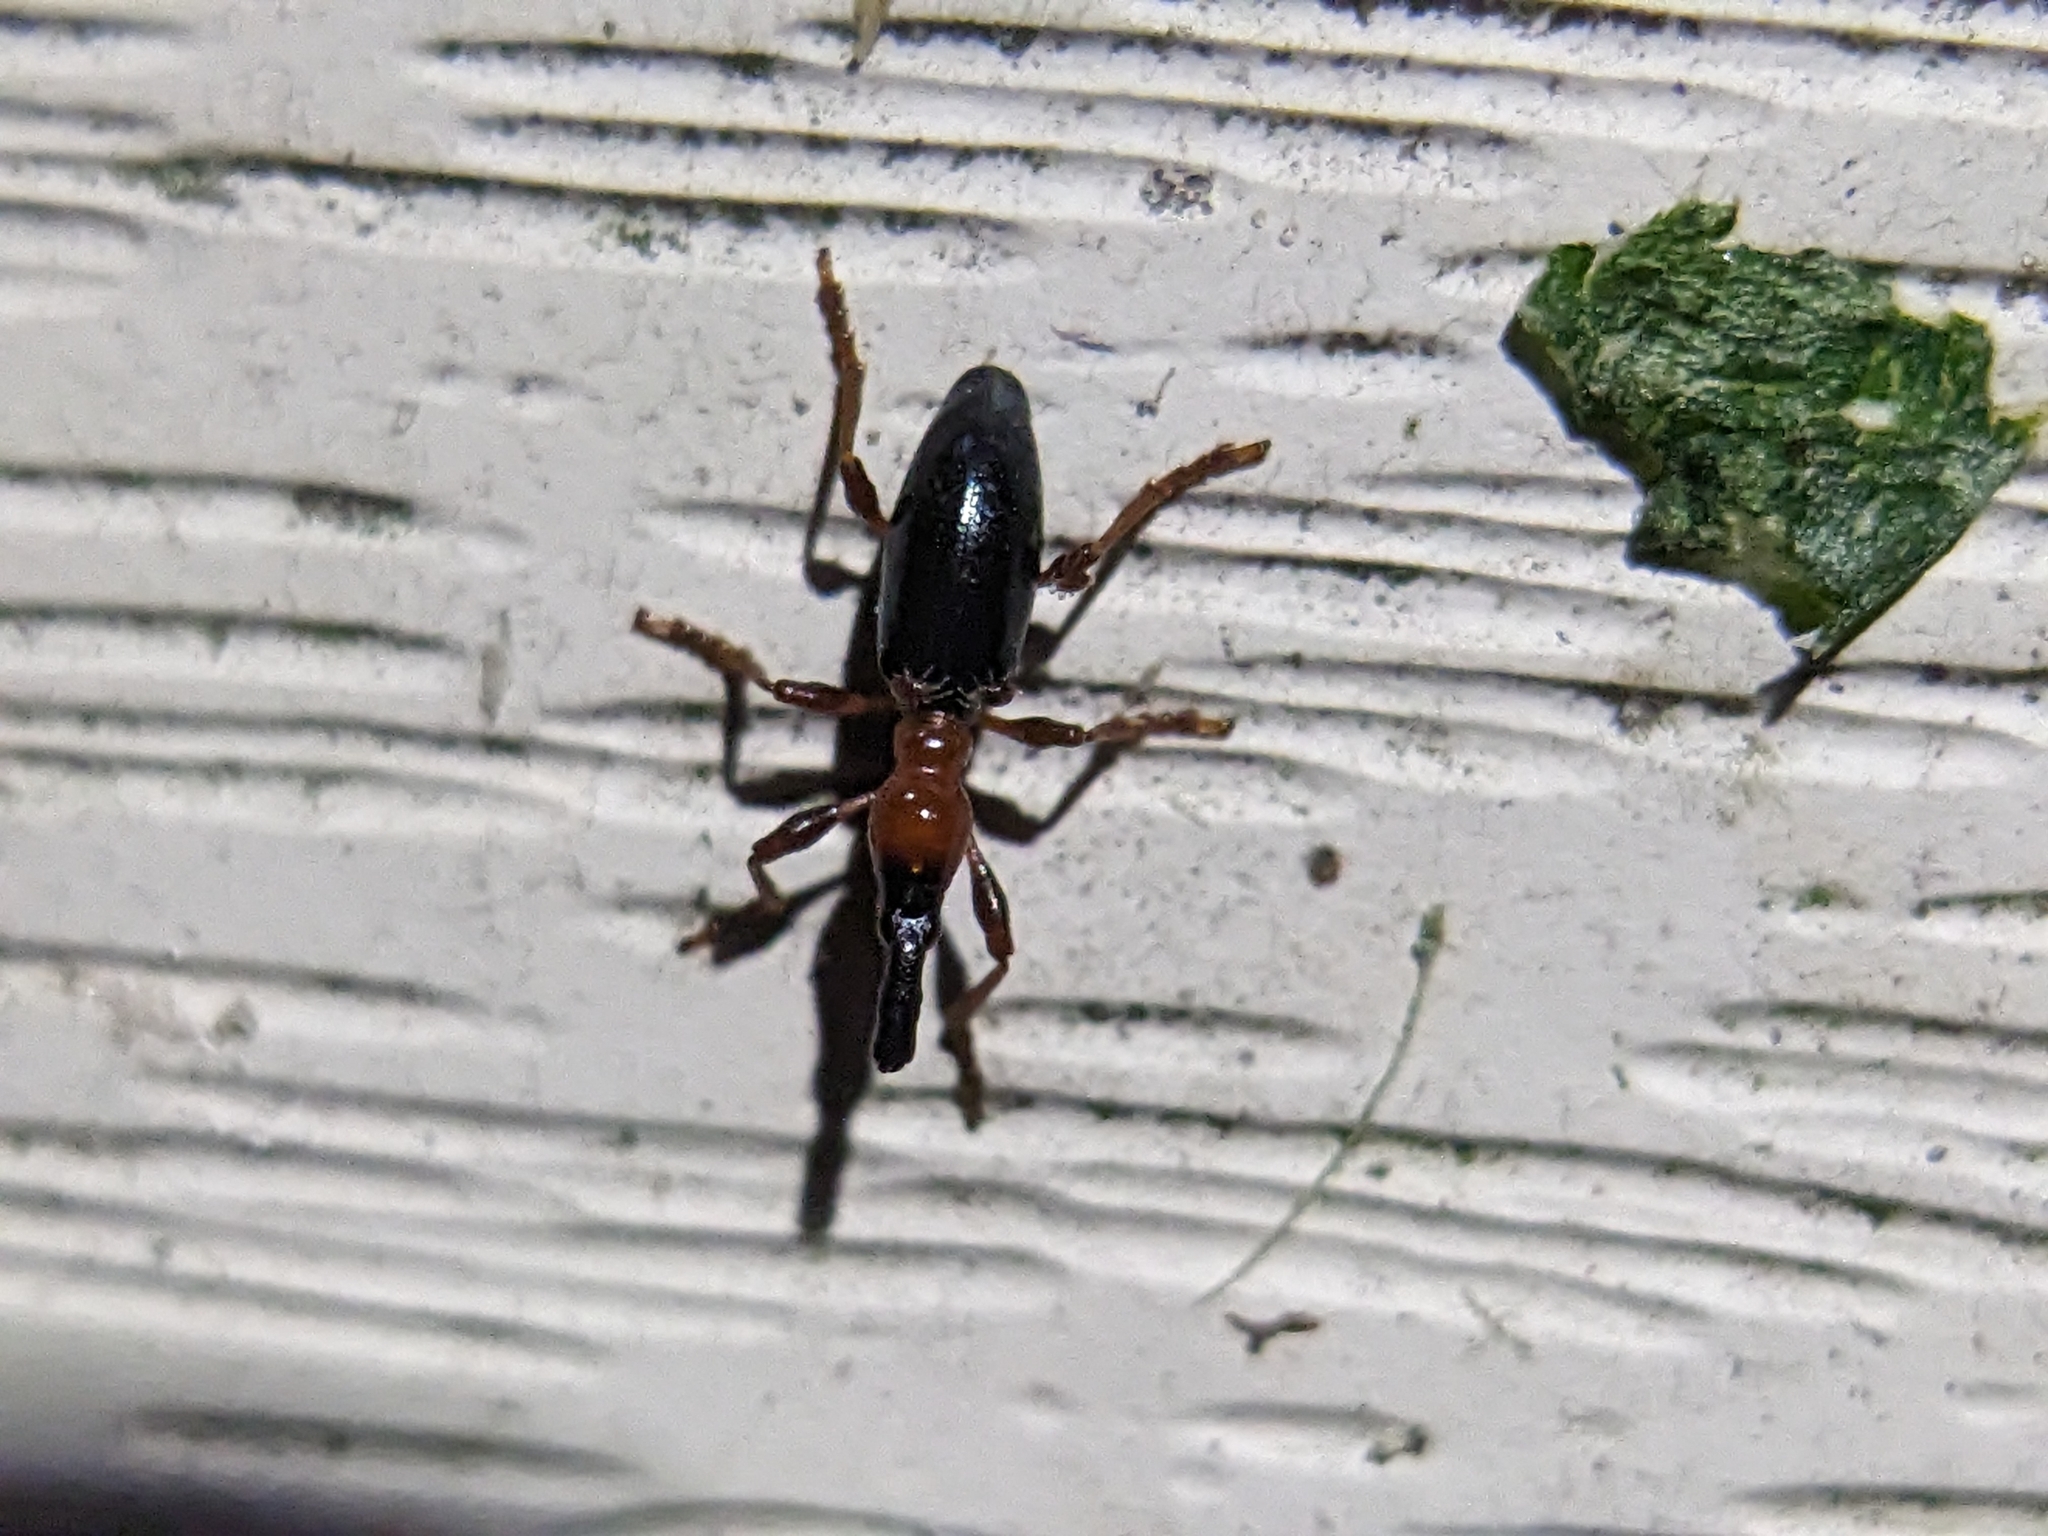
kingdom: Animalia
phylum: Arthropoda
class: Insecta
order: Coleoptera
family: Brentidae
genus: Cylas
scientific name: Cylas formicarius
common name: Sweetpotato weevil
